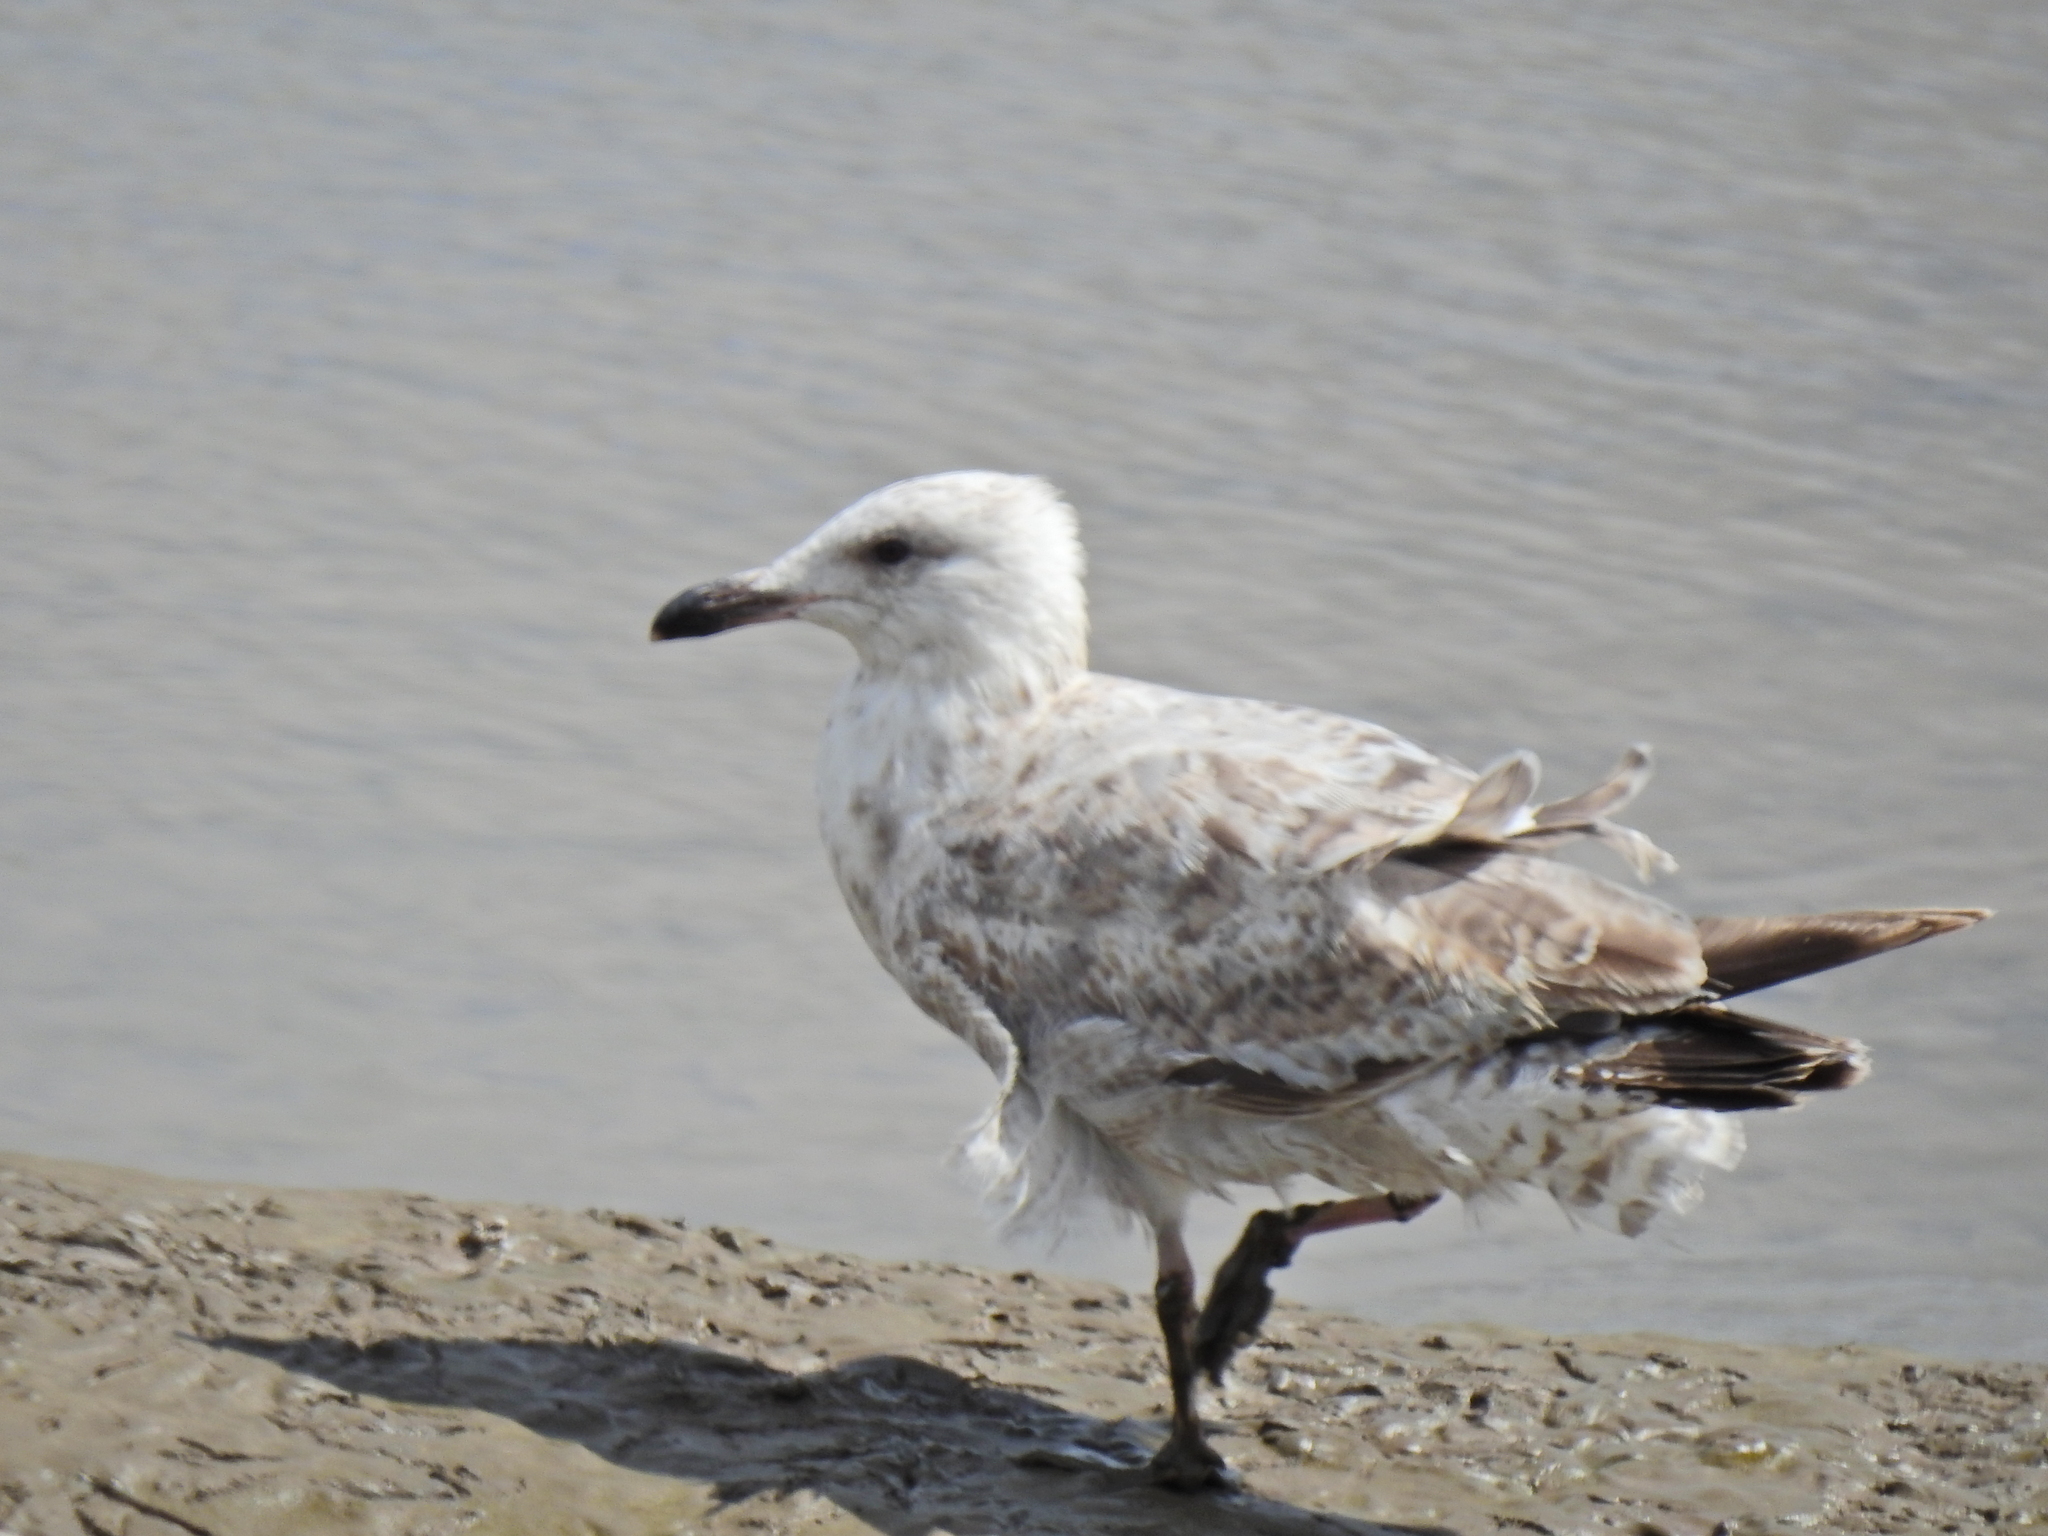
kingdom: Animalia
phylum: Chordata
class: Aves
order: Charadriiformes
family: Laridae
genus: Larus
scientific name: Larus argentatus
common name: Herring gull
